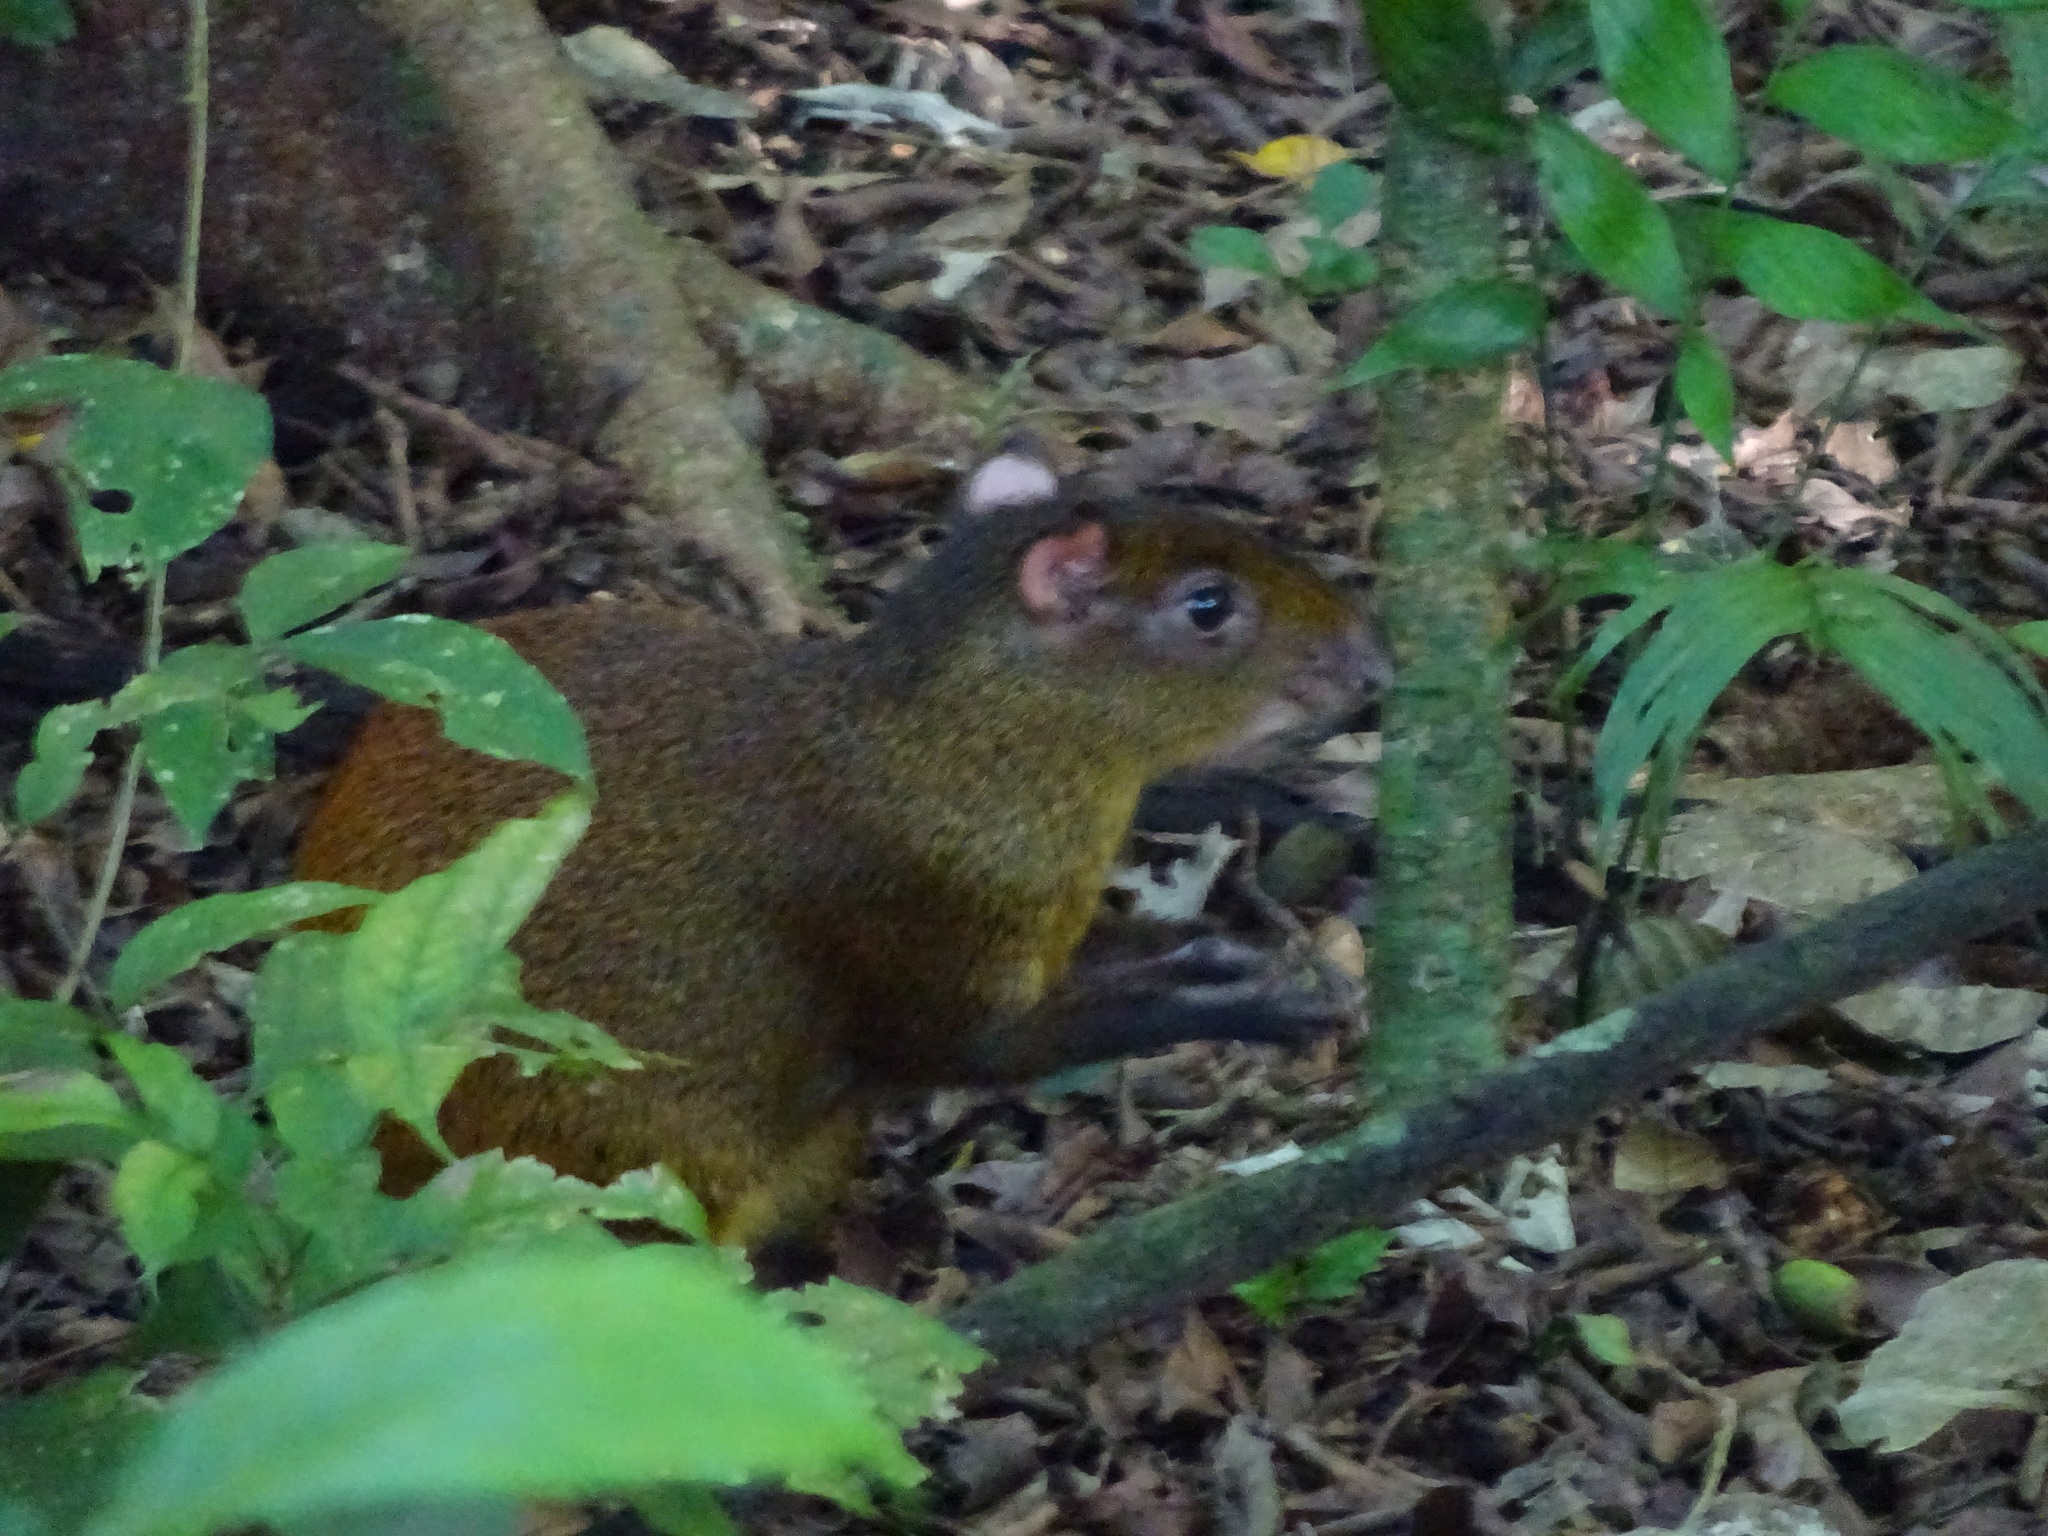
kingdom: Animalia
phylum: Chordata
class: Mammalia
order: Rodentia
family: Dasyproctidae
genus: Dasyprocta
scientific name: Dasyprocta punctata
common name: Central american agouti
